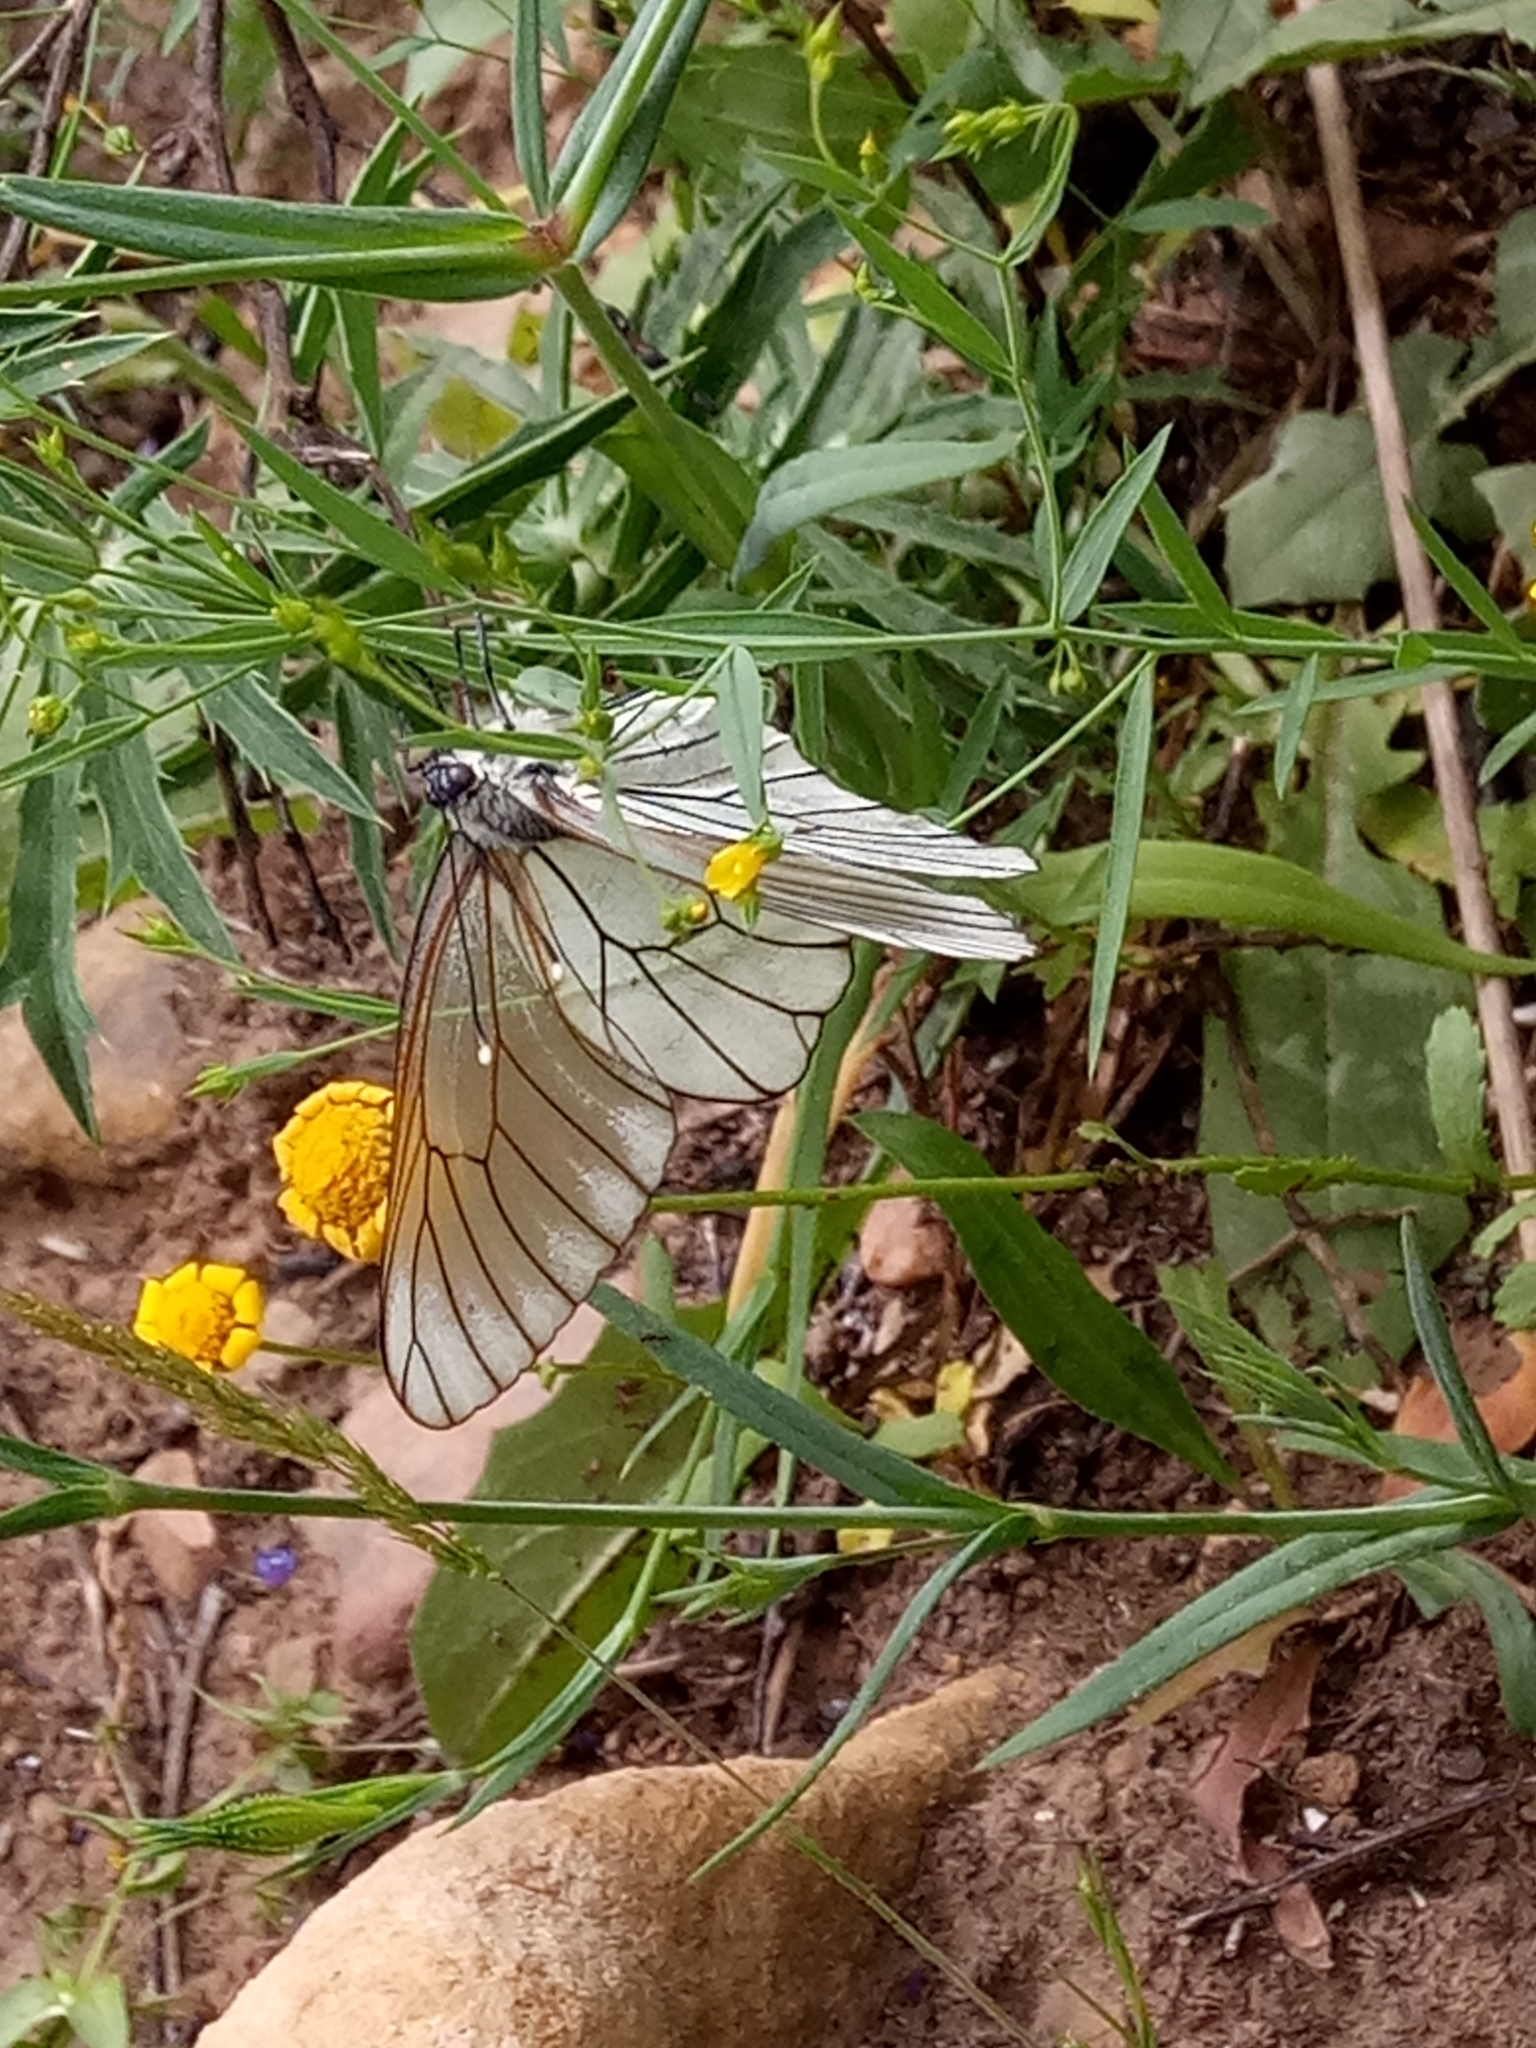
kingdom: Animalia
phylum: Arthropoda
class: Insecta
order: Lepidoptera
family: Pieridae
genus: Aporia
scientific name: Aporia crataegi
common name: Black-veined white
